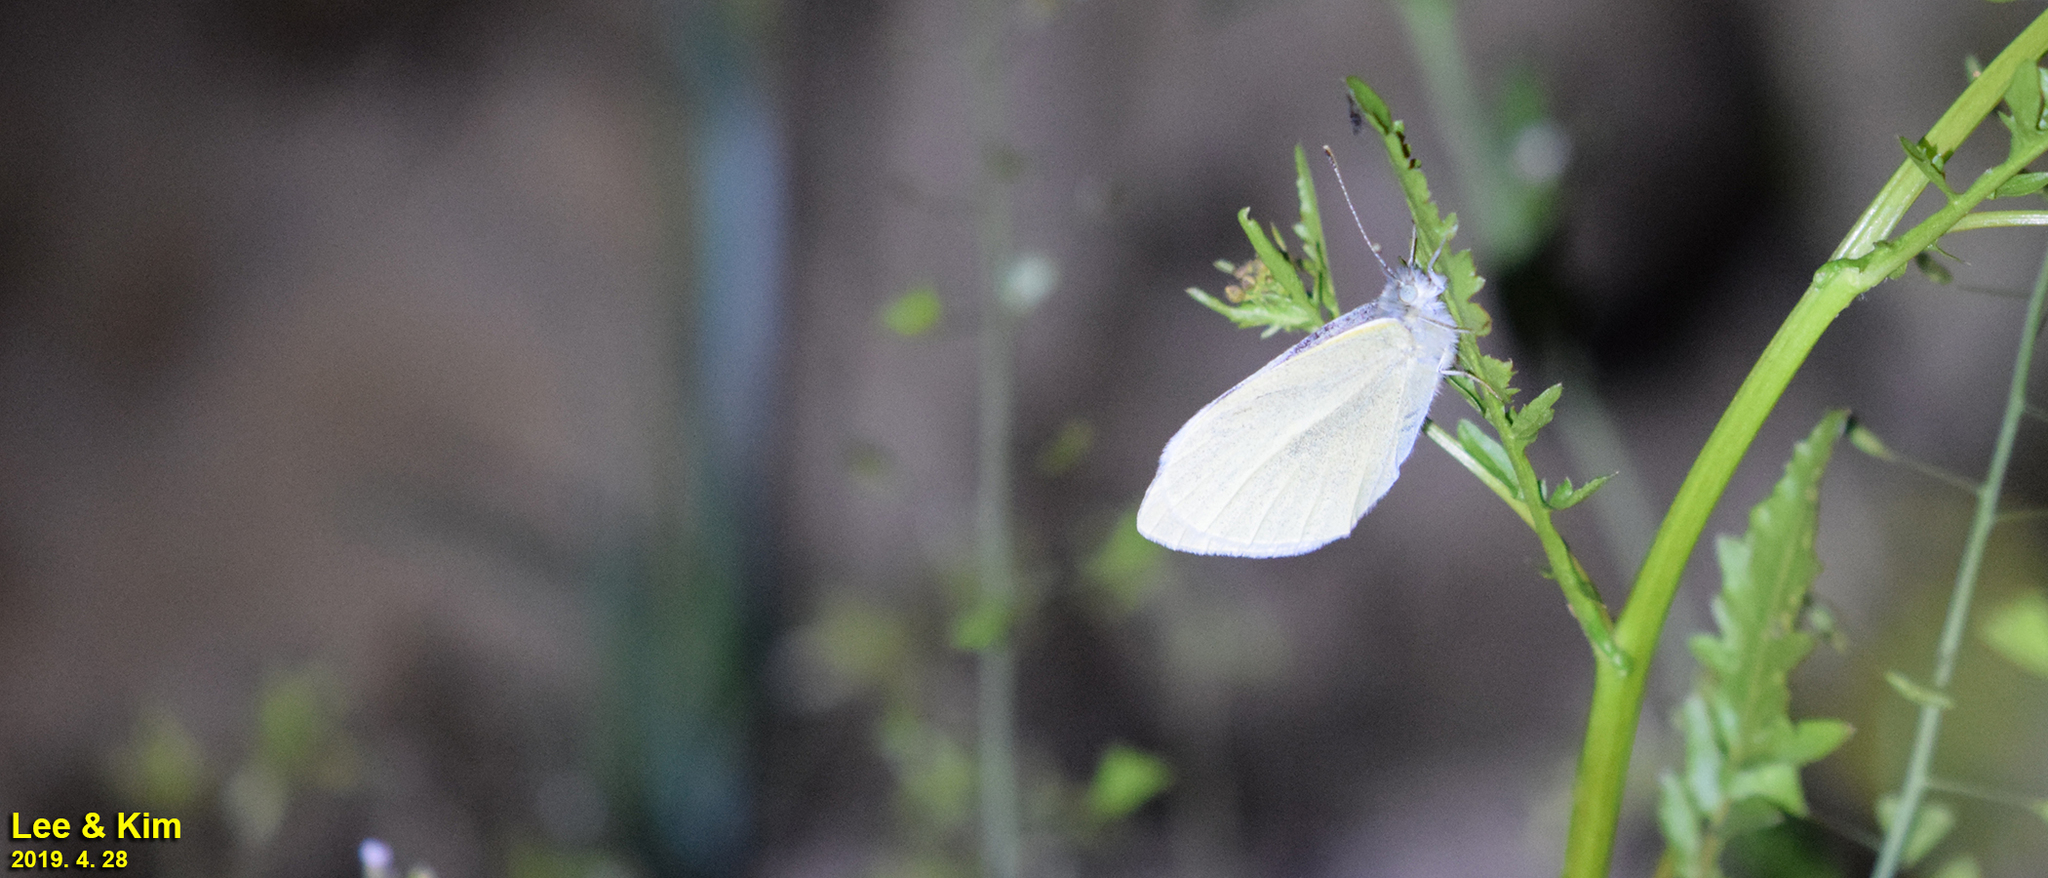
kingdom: Animalia
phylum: Arthropoda
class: Insecta
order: Lepidoptera
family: Pieridae
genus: Pieris
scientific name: Pieris rapae
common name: Small white
